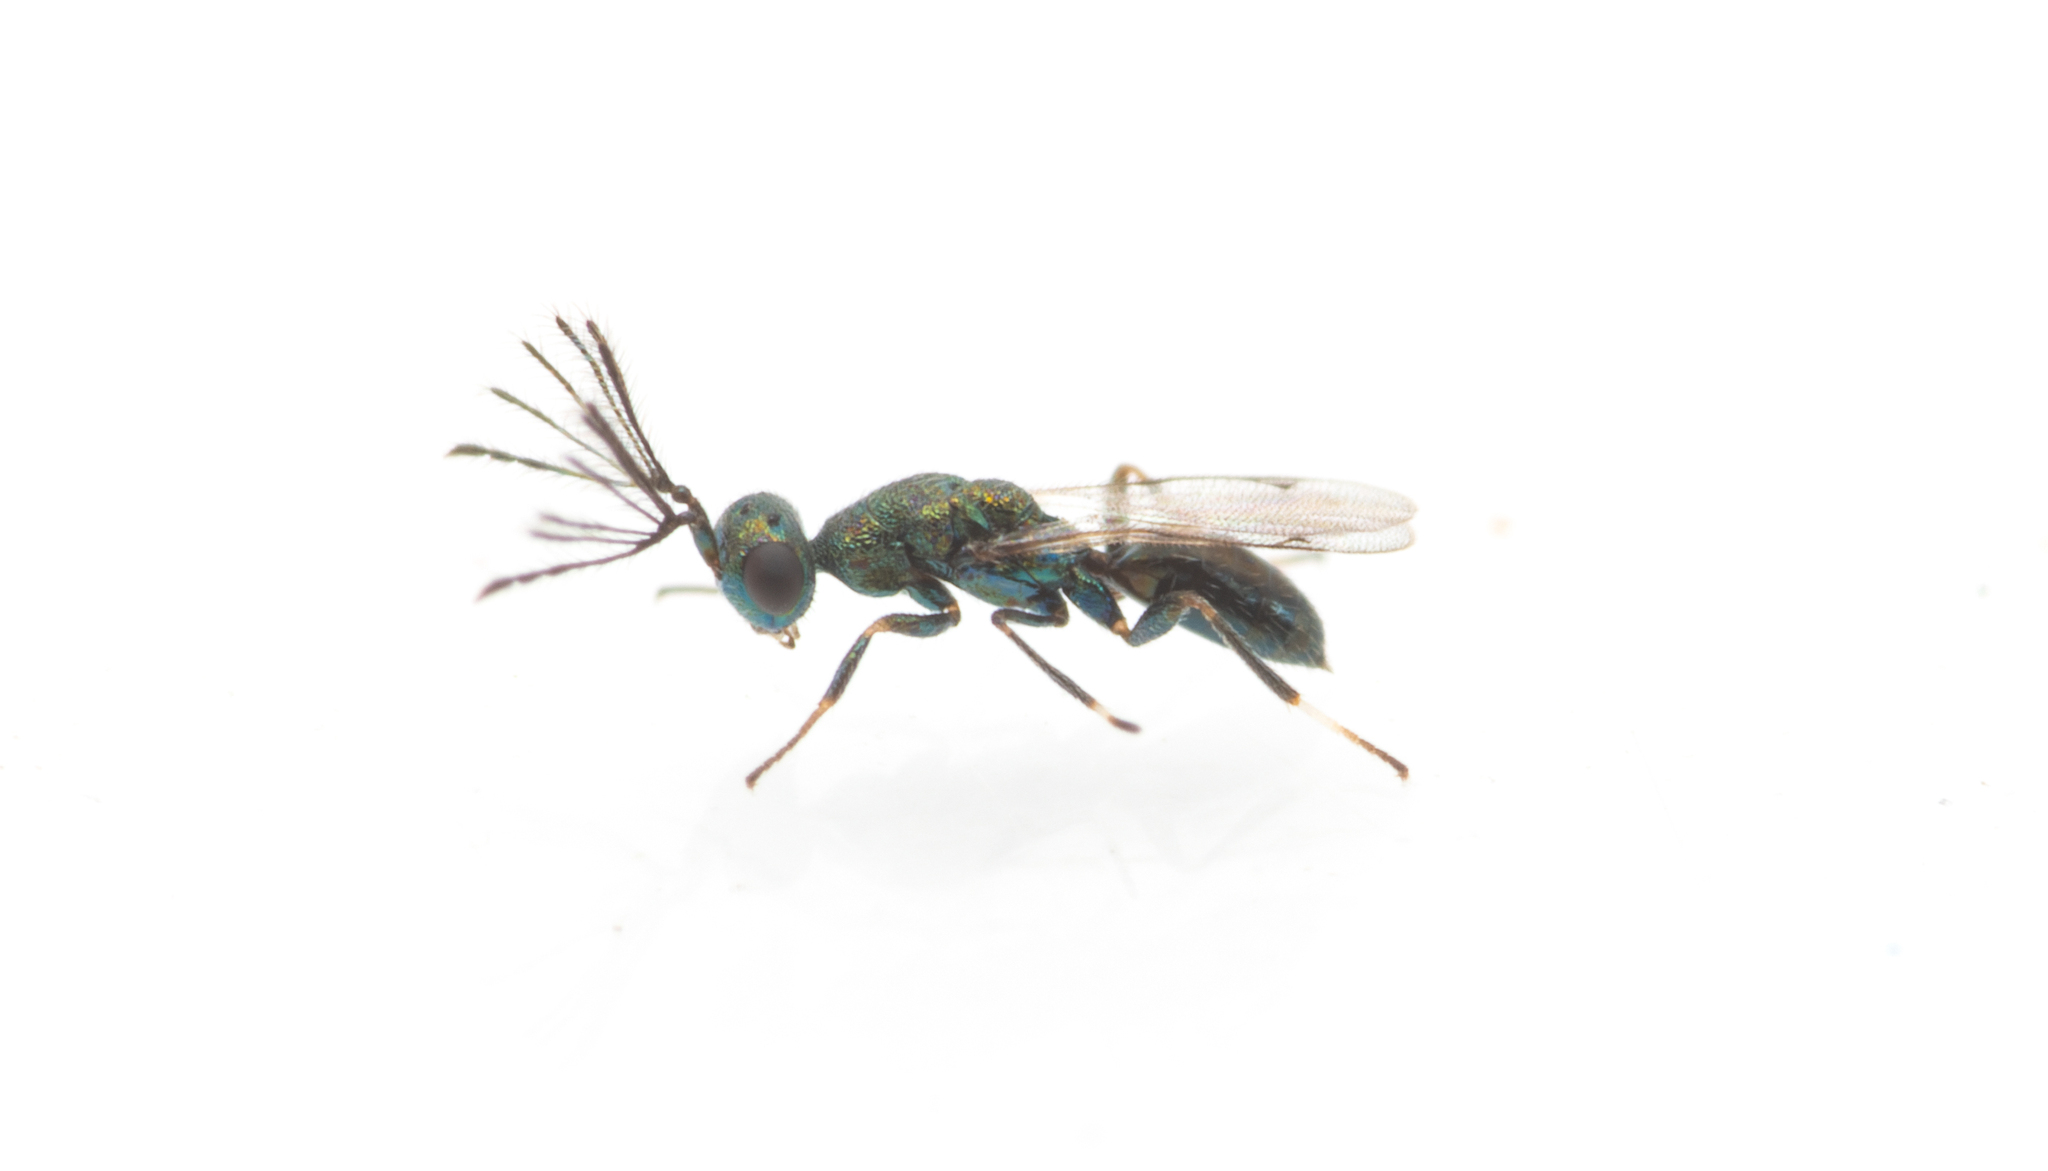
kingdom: Animalia
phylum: Arthropoda
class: Insecta
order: Hymenoptera
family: Pteromalidae
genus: Notanisus
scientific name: Notanisus versicolor
